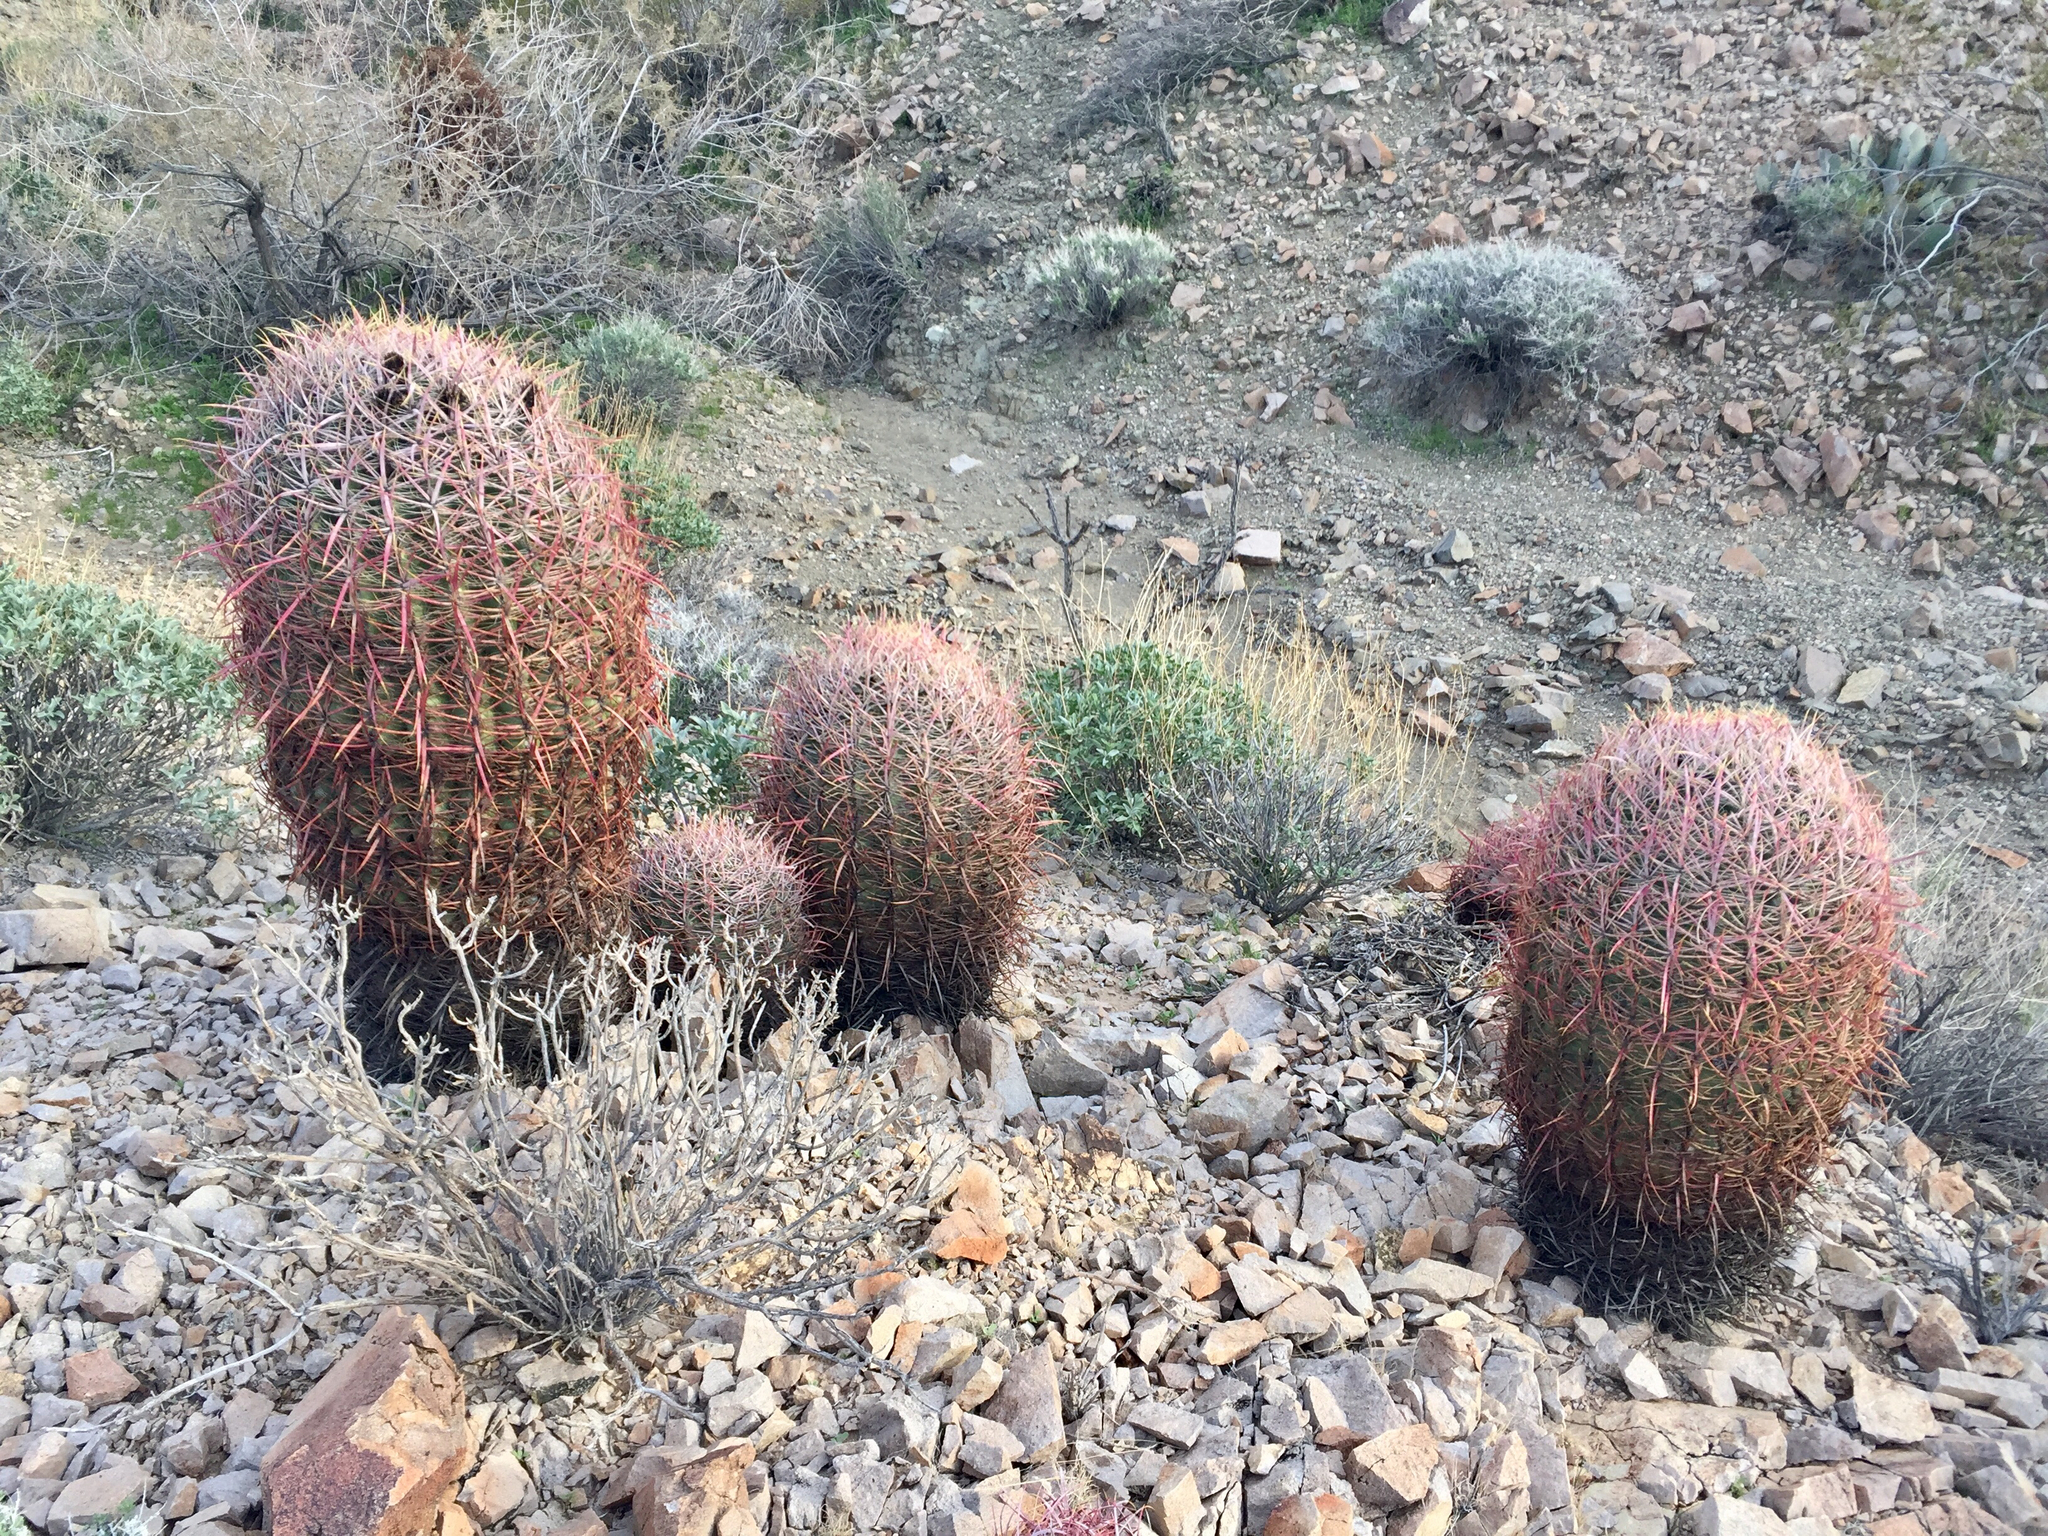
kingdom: Plantae
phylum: Tracheophyta
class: Magnoliopsida
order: Caryophyllales
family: Cactaceae
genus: Ferocactus
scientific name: Ferocactus cylindraceus
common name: California barrel cactus
